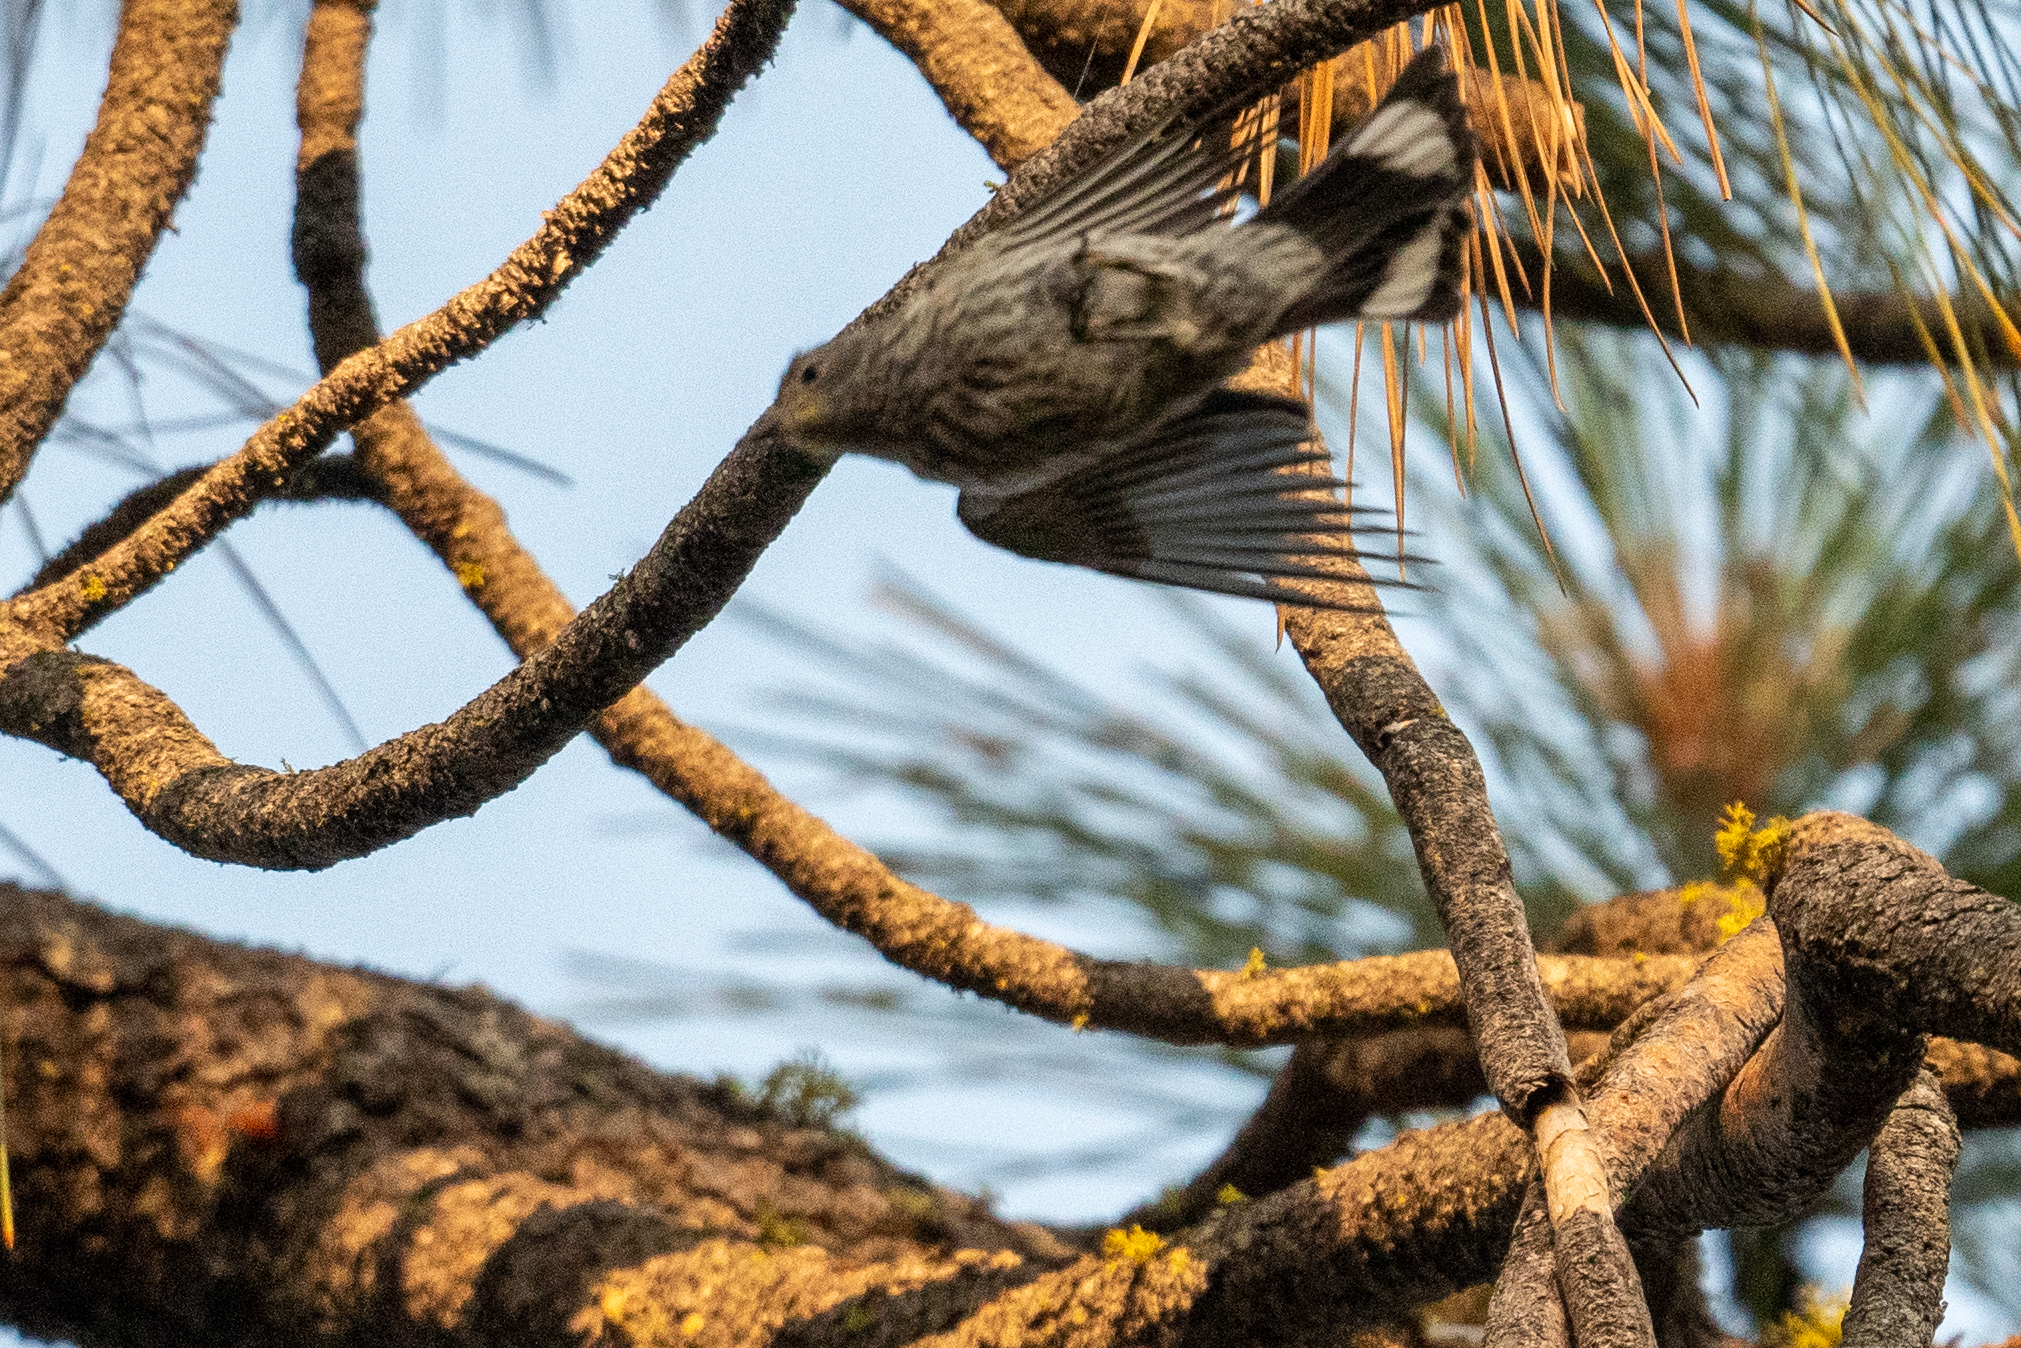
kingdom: Animalia
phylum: Chordata
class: Aves
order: Passeriformes
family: Parulidae
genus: Setophaga
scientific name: Setophaga auduboni
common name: Audubon's warbler
